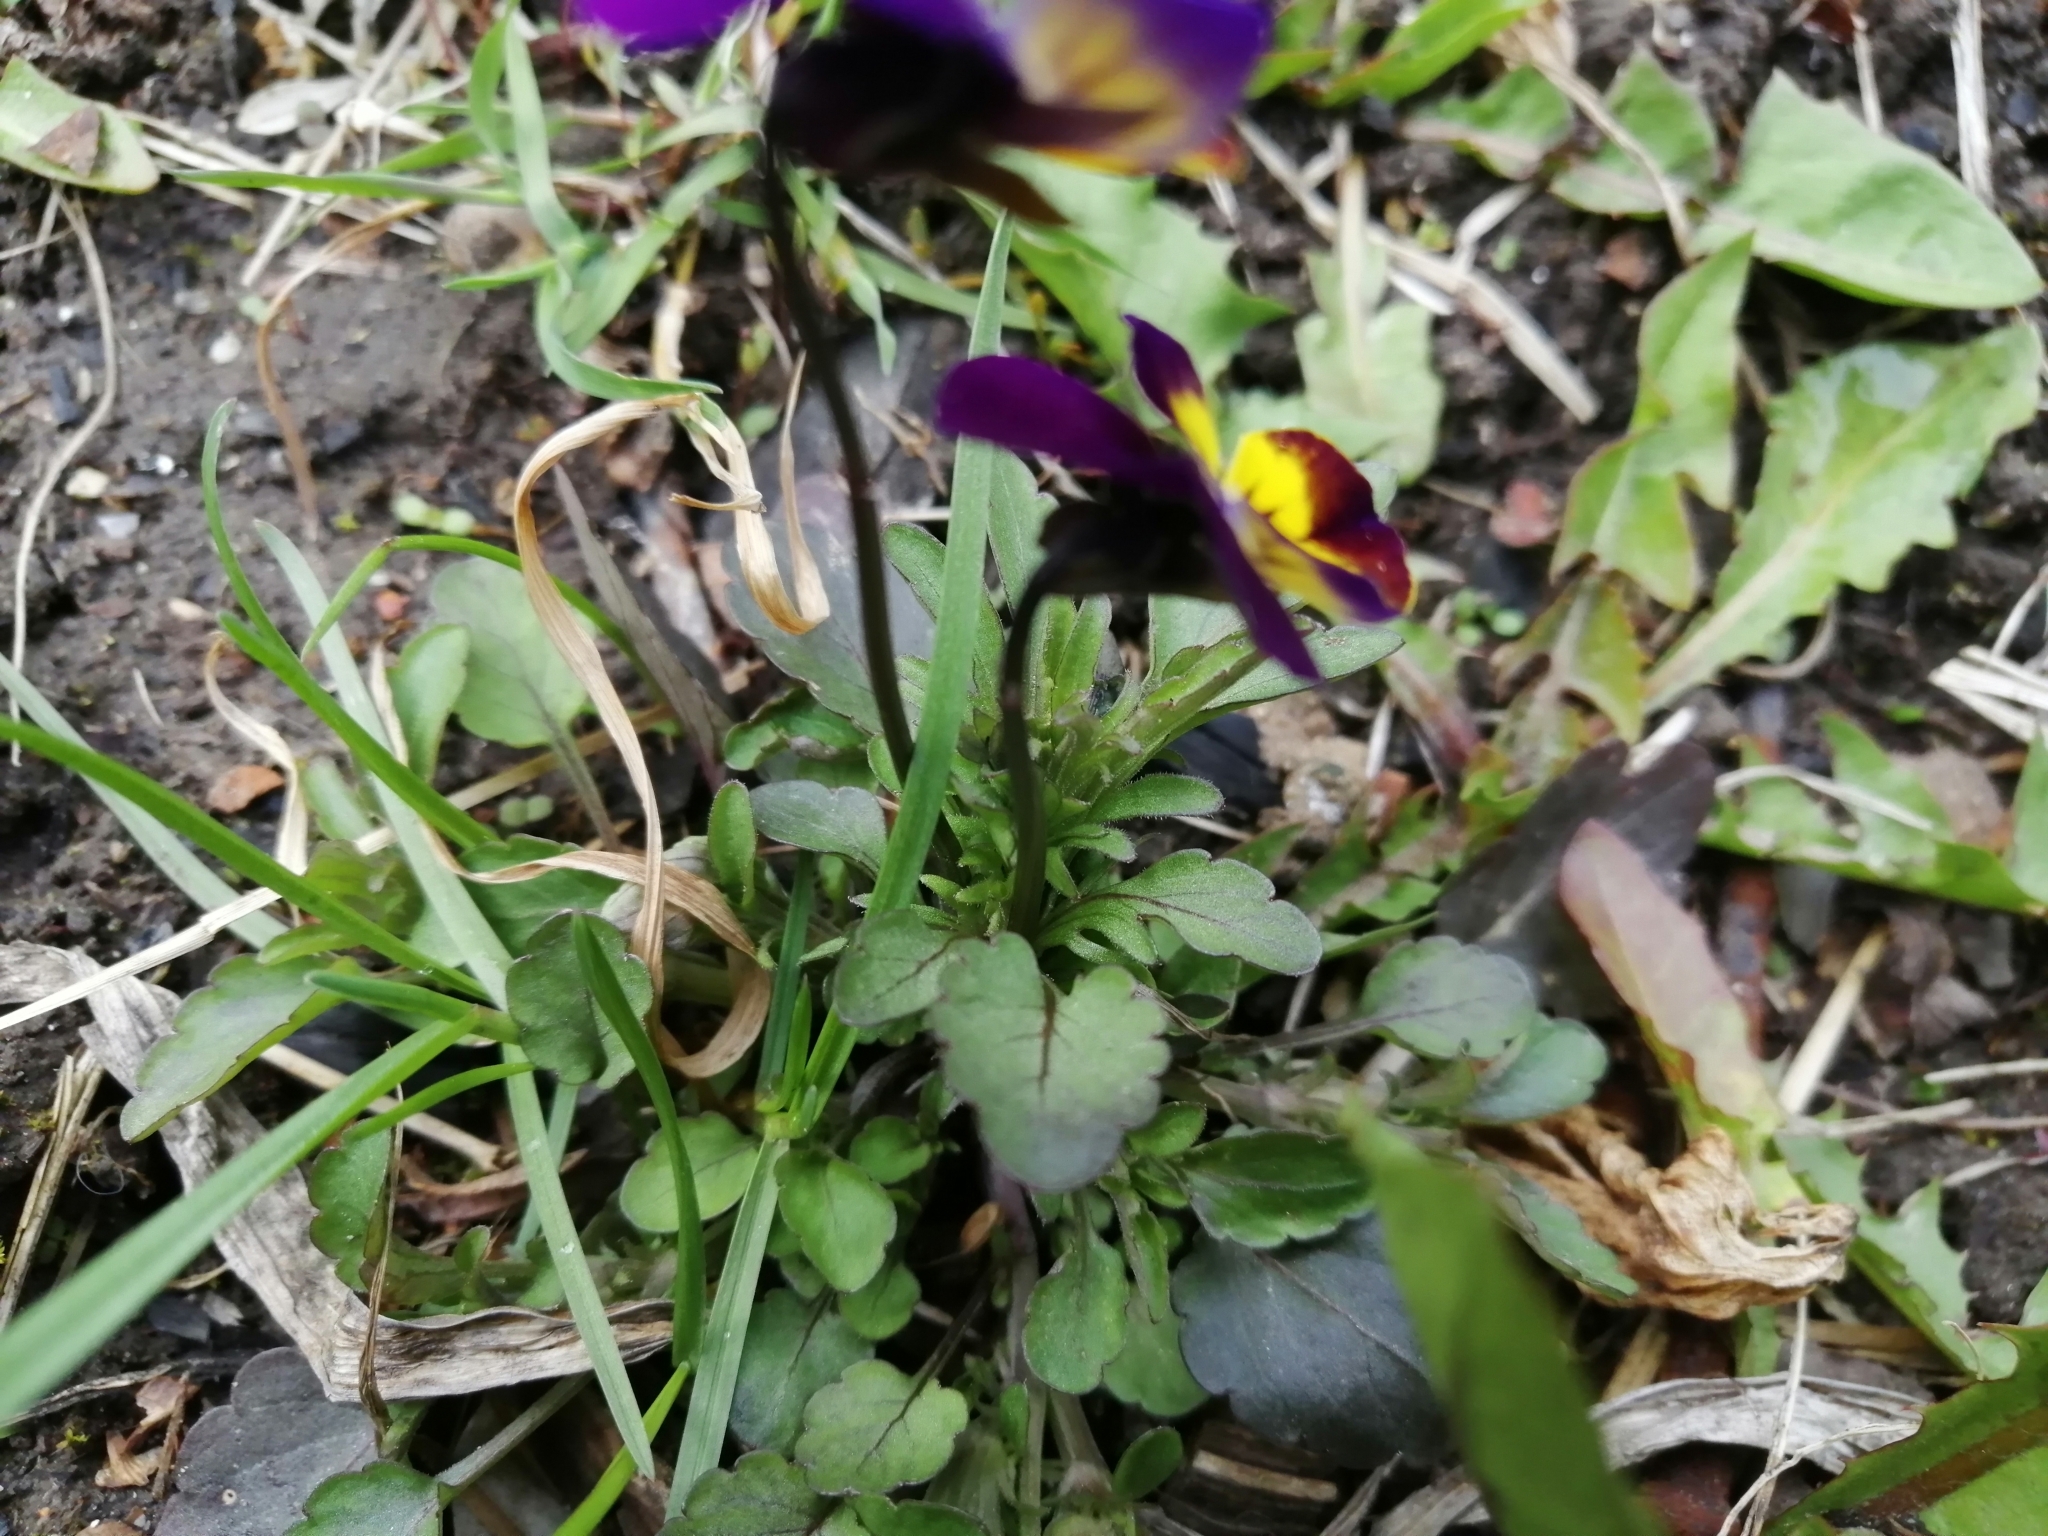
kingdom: Plantae
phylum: Tracheophyta
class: Magnoliopsida
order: Malpighiales
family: Violaceae
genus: Viola
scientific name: Viola wittrockiana
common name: Garden pansy
